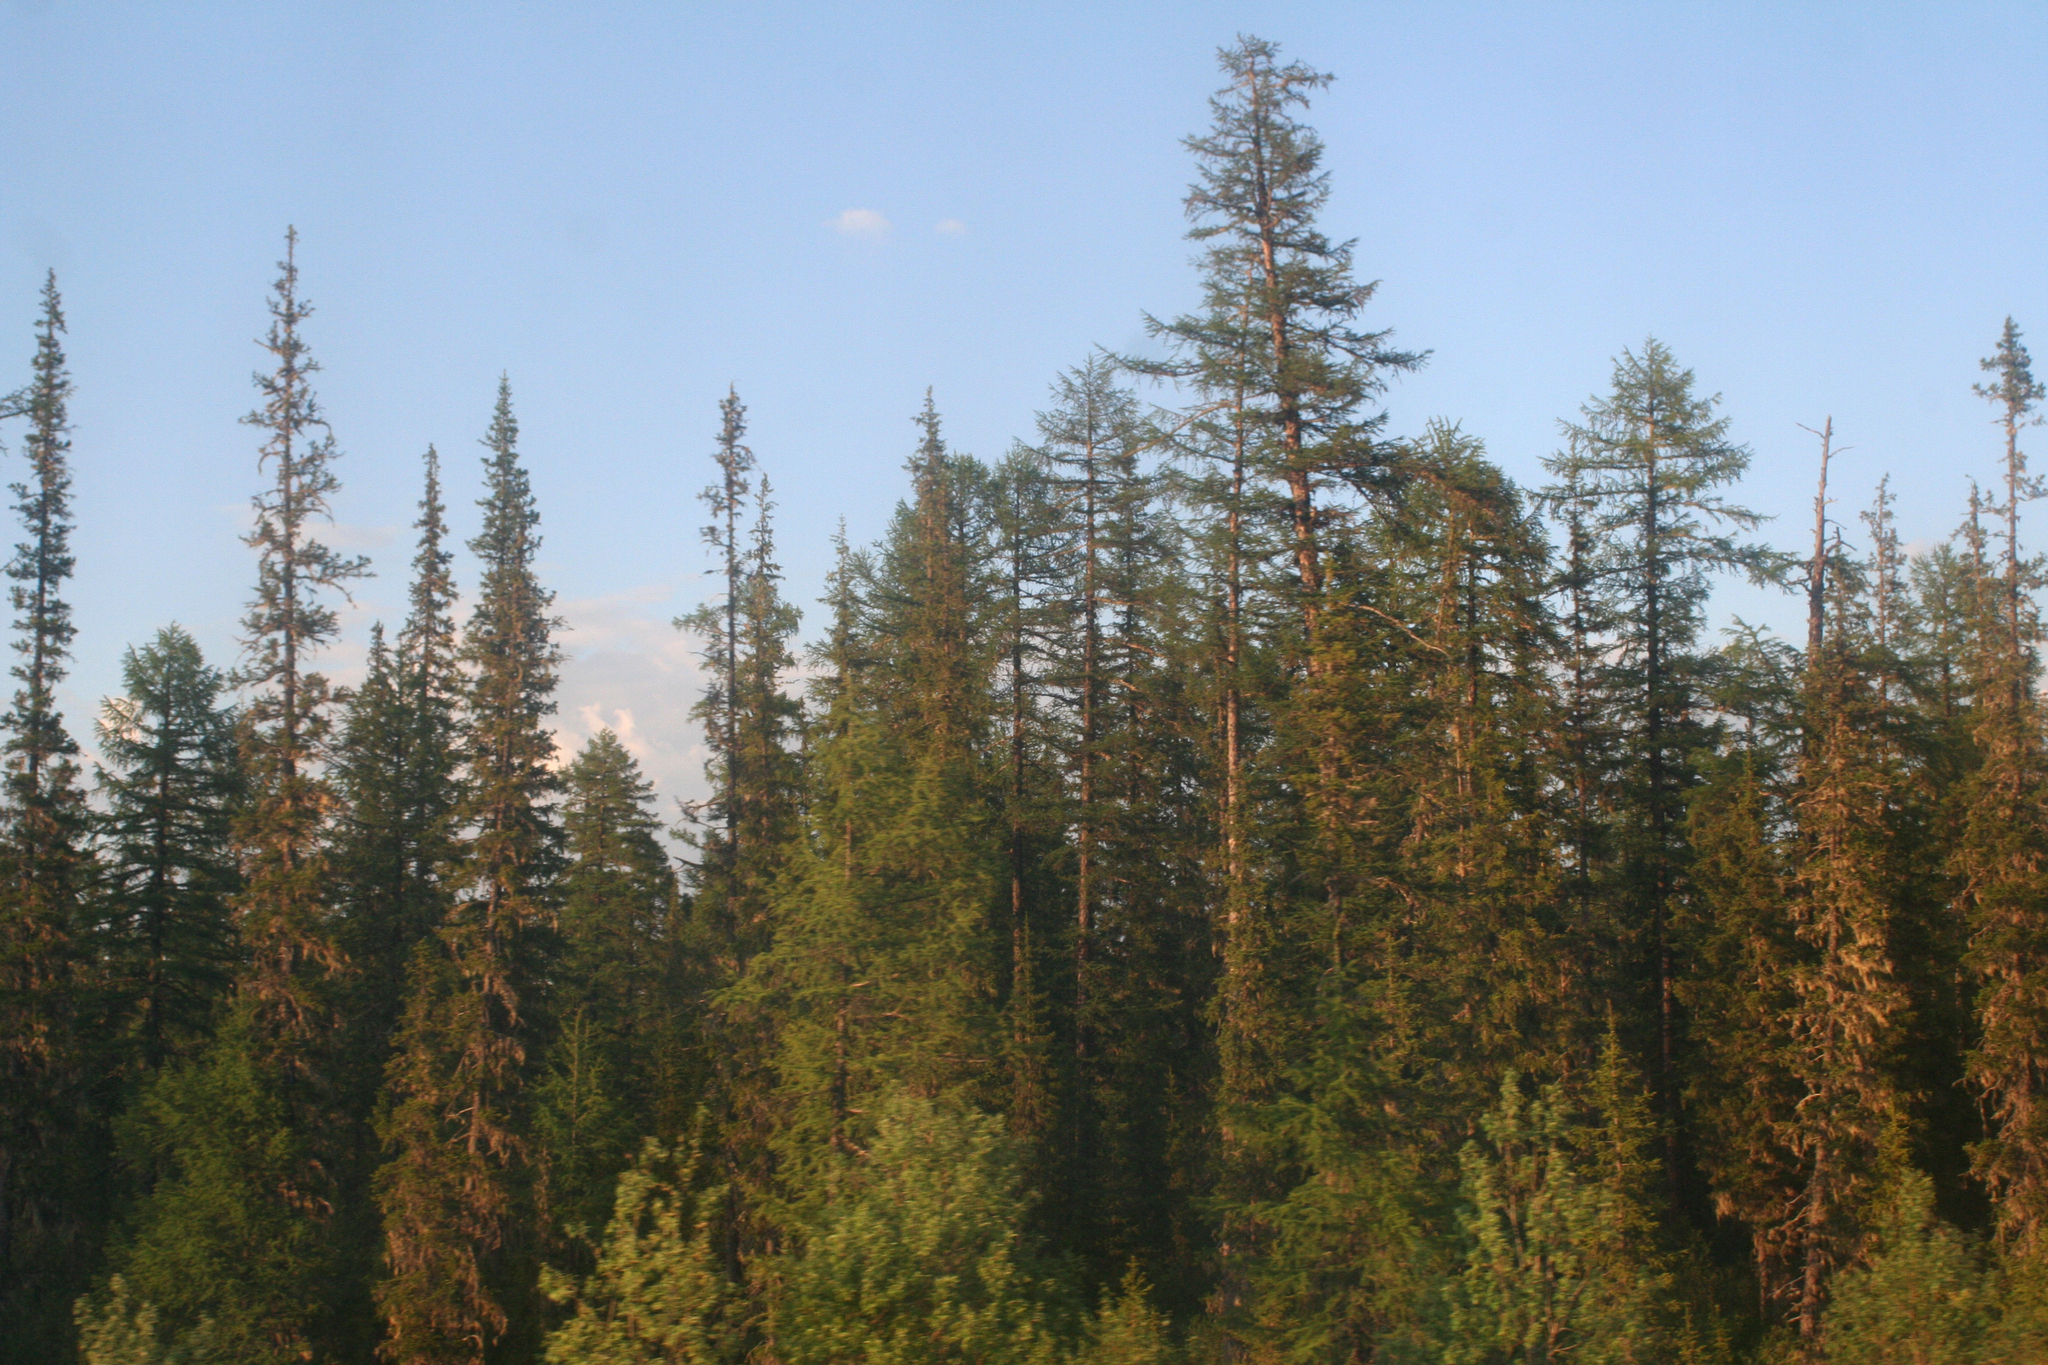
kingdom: Plantae
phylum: Tracheophyta
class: Pinopsida
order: Pinales
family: Pinaceae
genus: Picea
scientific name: Picea obovata
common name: Siberian spruce
